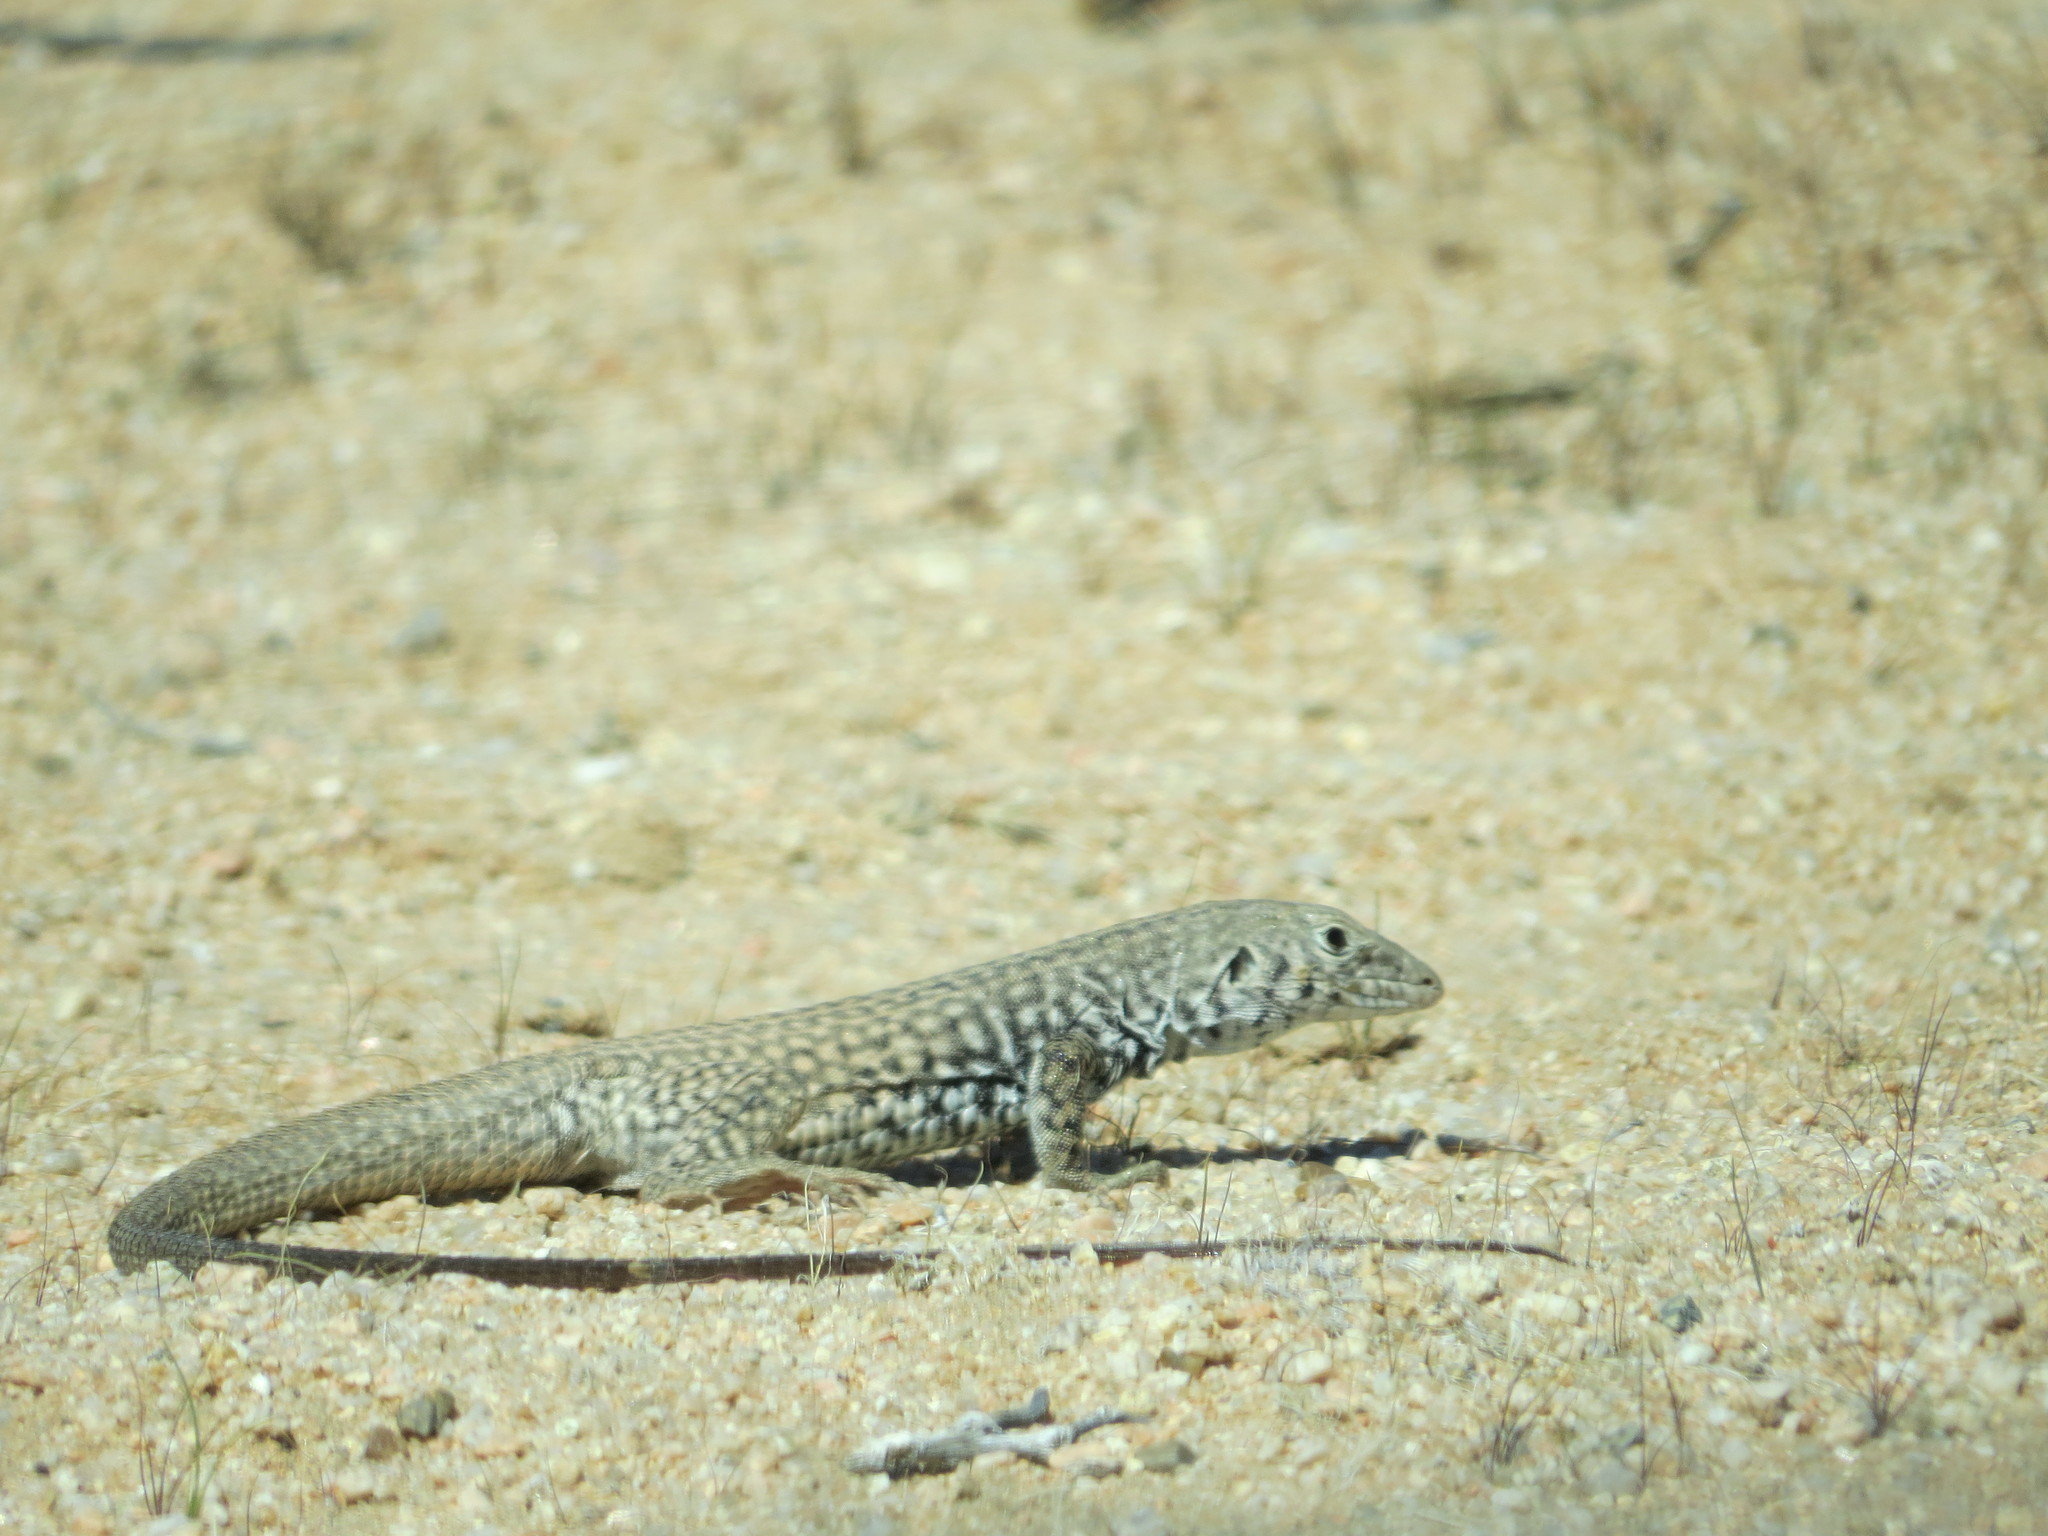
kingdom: Animalia
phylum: Chordata
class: Squamata
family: Teiidae
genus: Aspidoscelis
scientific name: Aspidoscelis tigris
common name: Tiger whiptail
